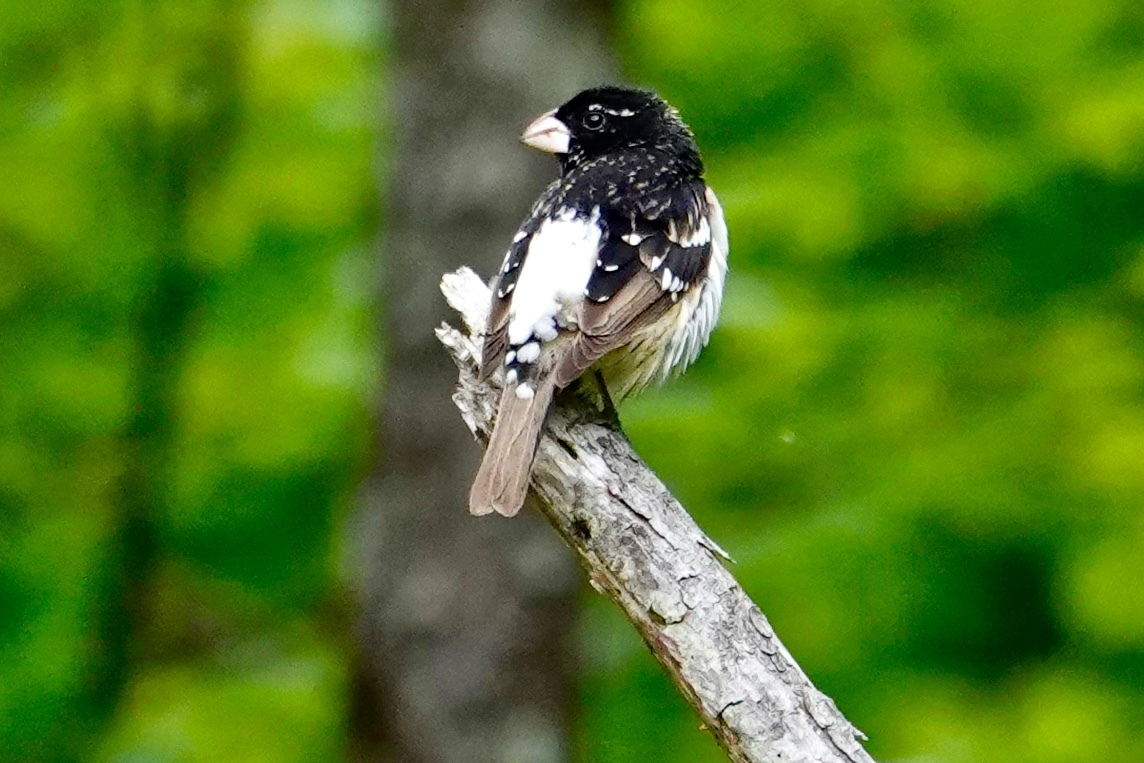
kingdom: Animalia
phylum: Chordata
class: Aves
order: Passeriformes
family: Cardinalidae
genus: Pheucticus
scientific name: Pheucticus ludovicianus
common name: Rose-breasted grosbeak
